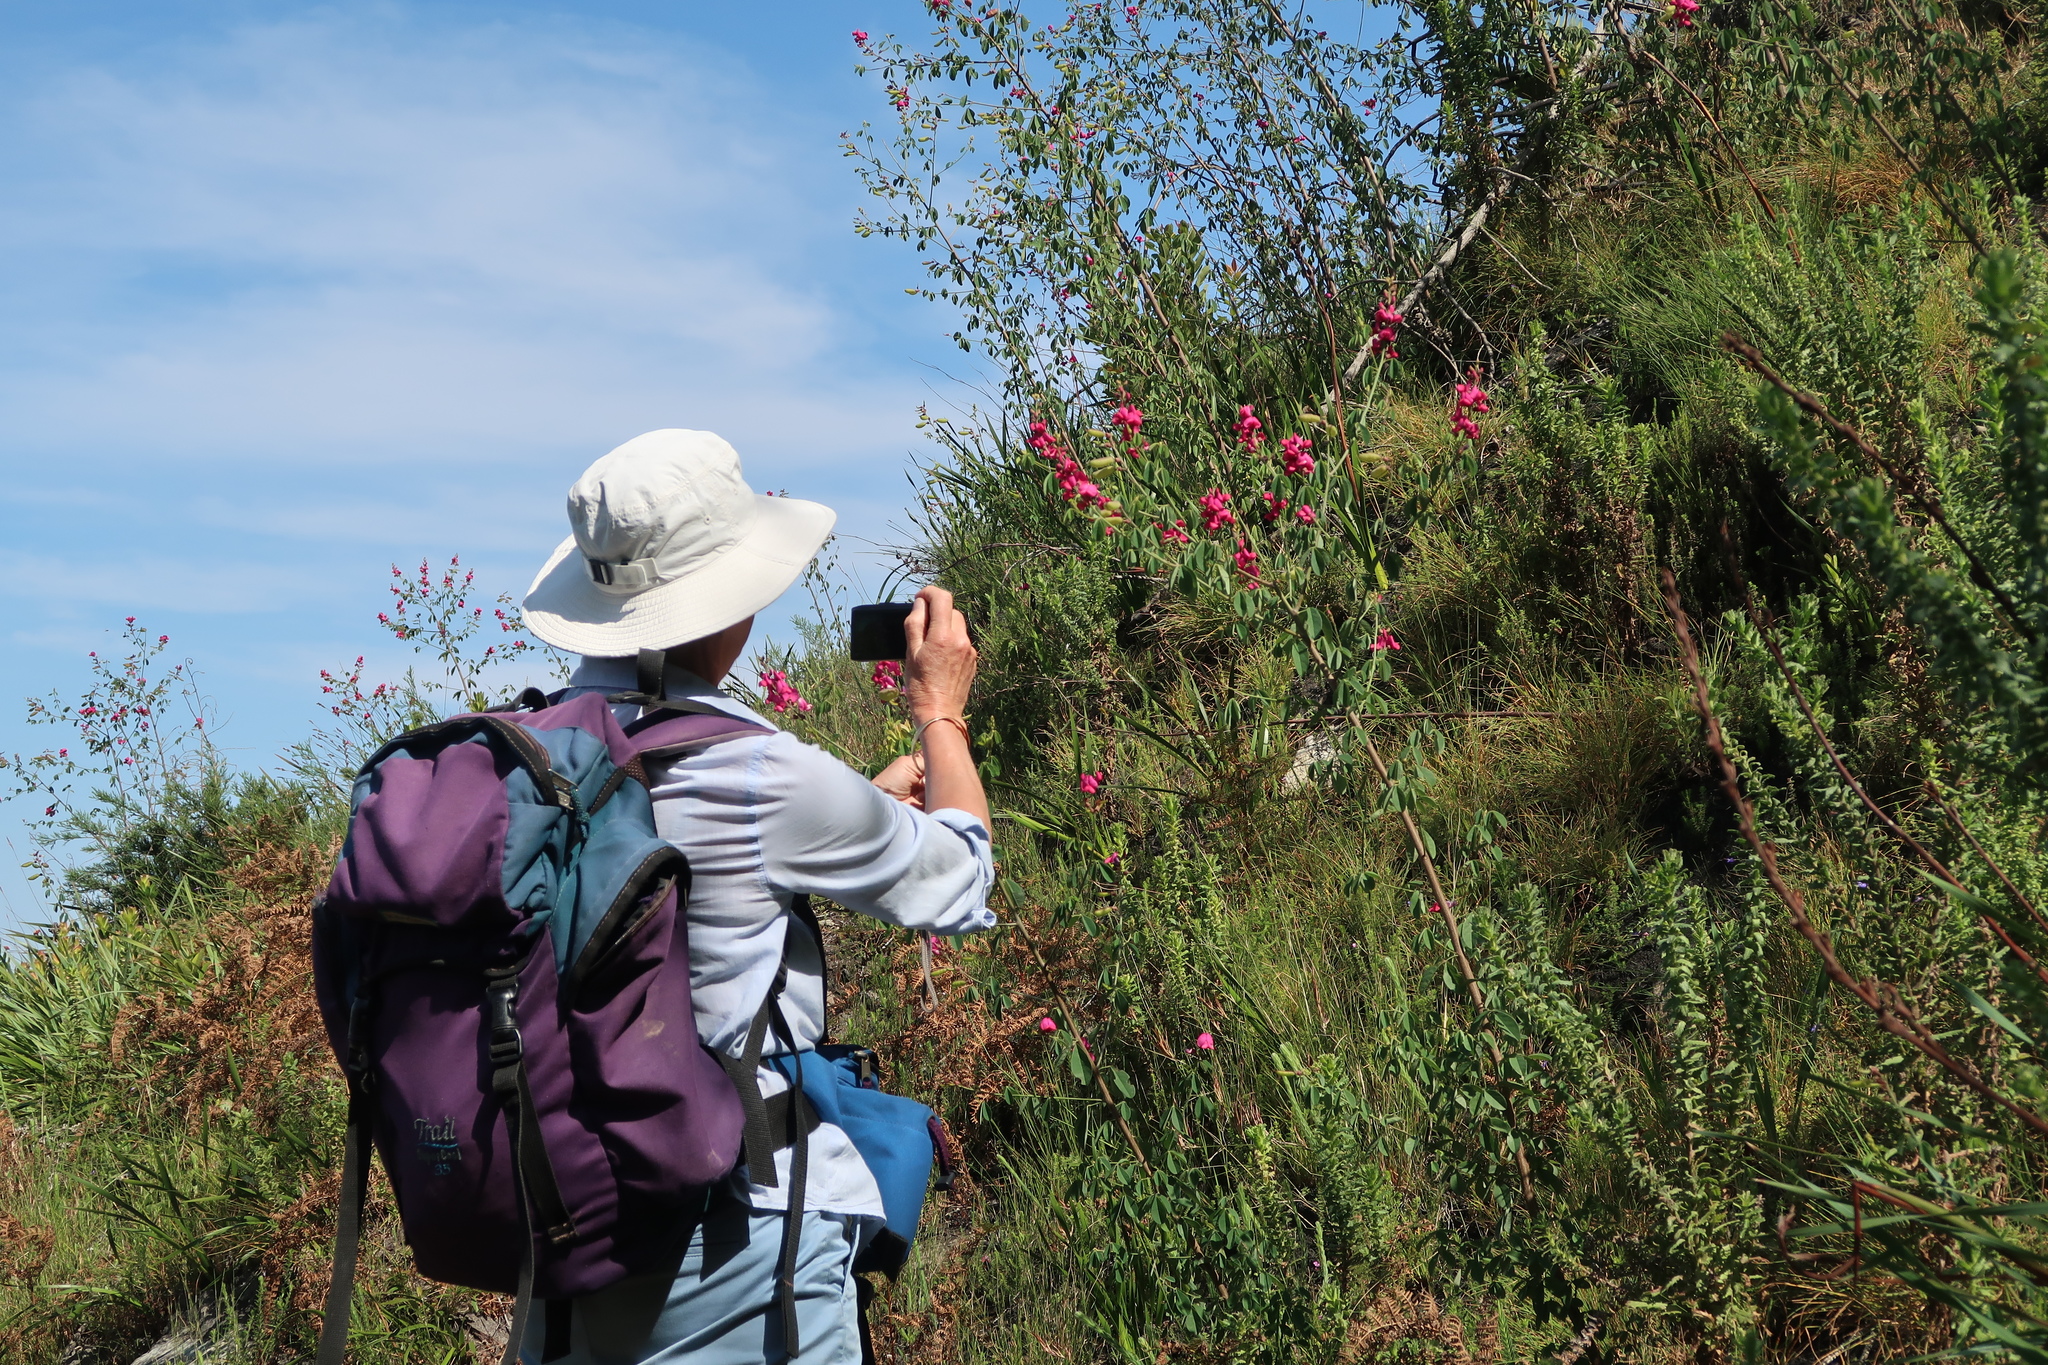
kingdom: Plantae
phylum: Tracheophyta
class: Magnoliopsida
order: Fabales
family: Fabaceae
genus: Hypocalyptus
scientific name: Hypocalyptus coluteoides
